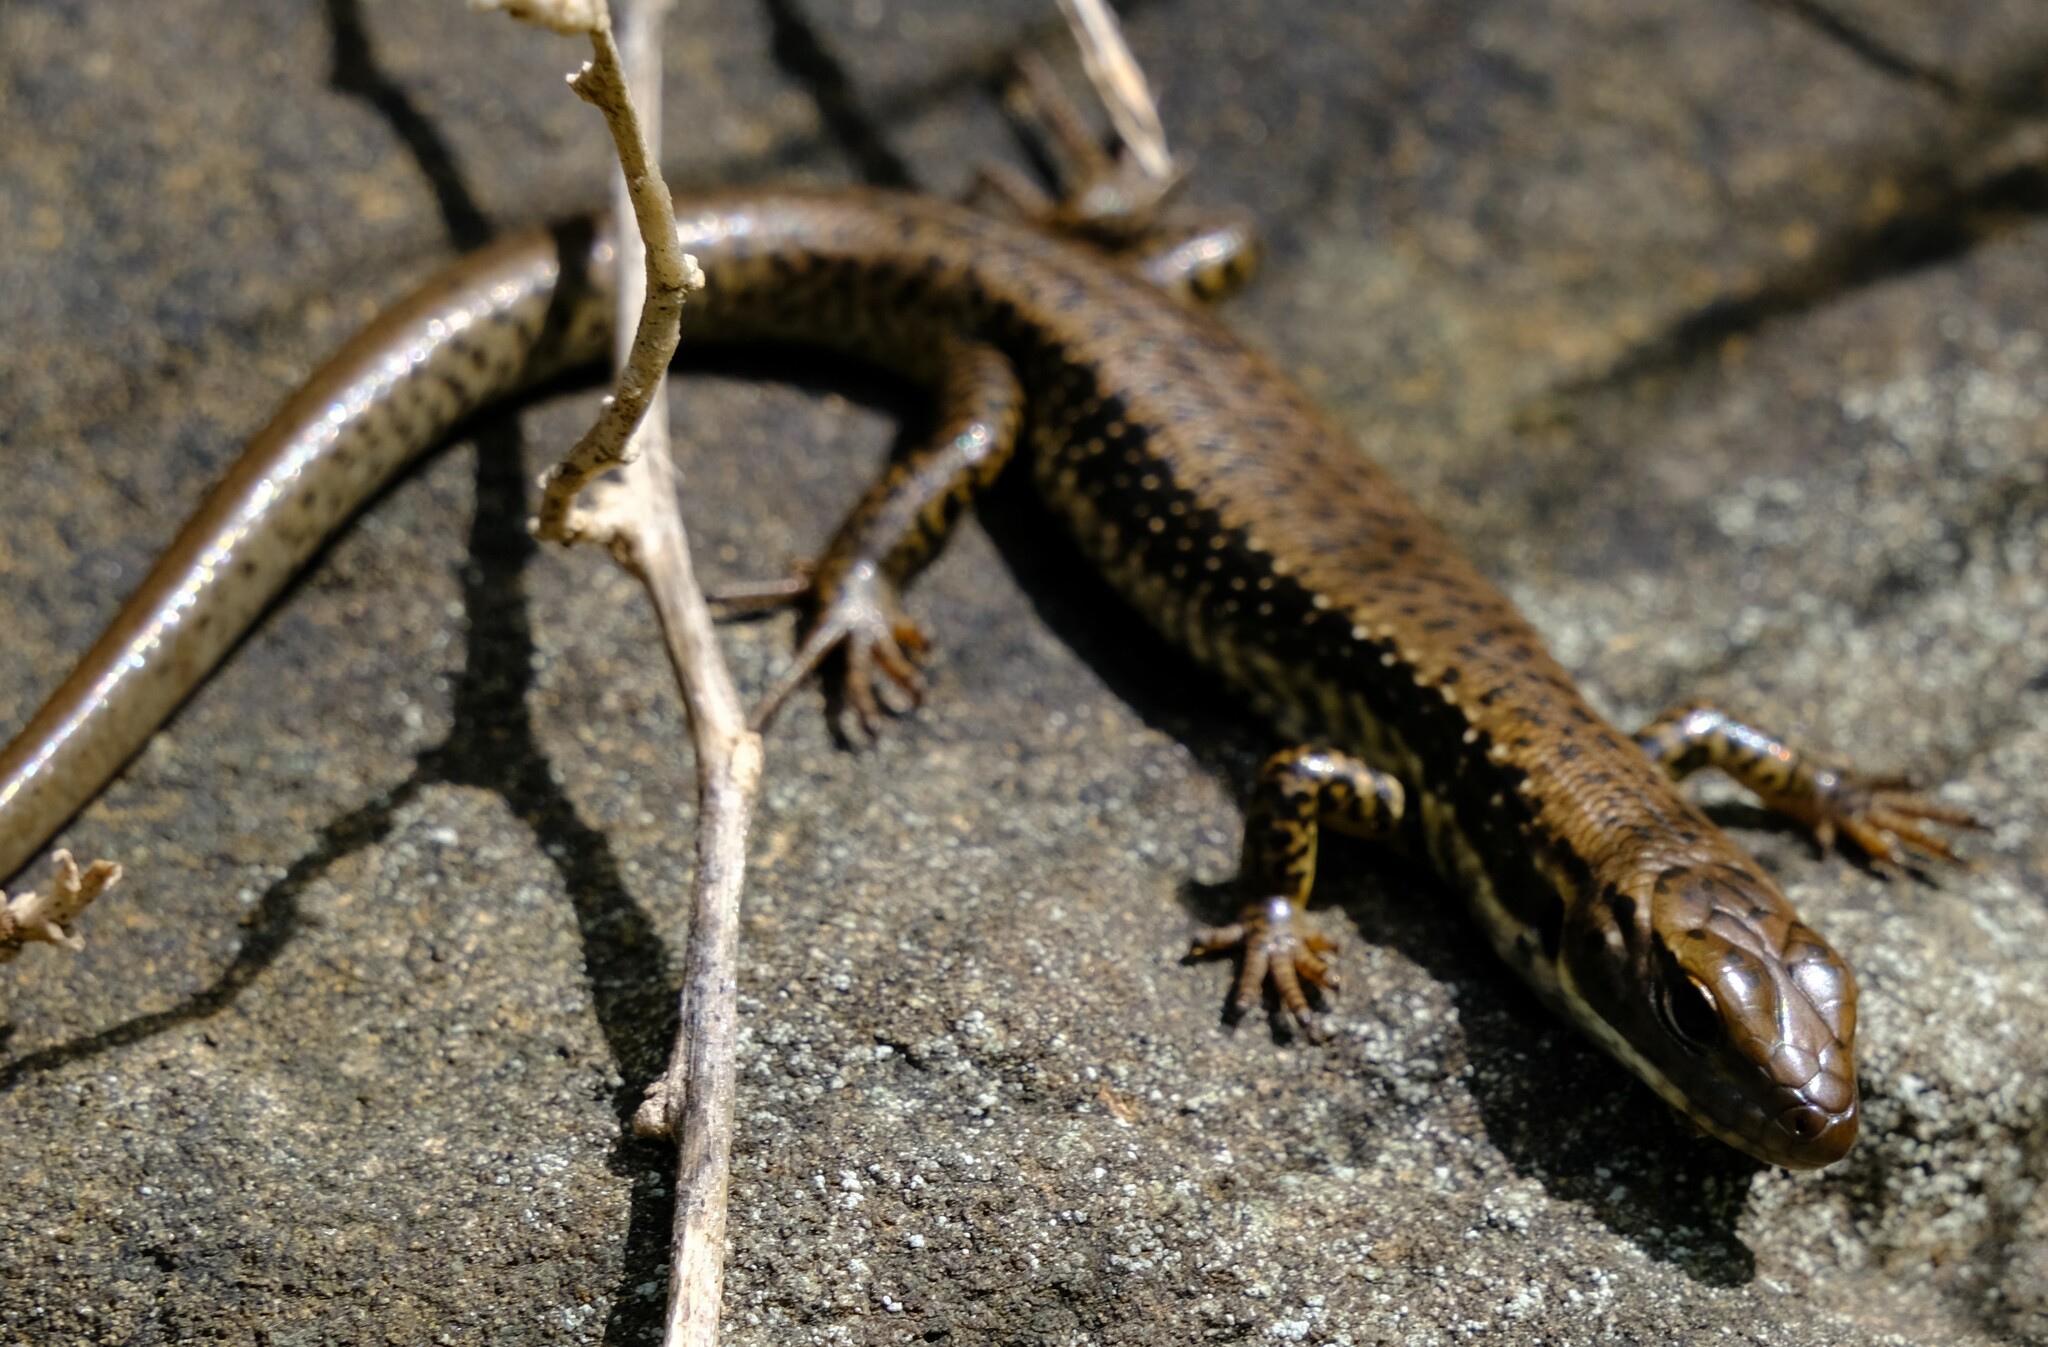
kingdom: Animalia
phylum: Chordata
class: Squamata
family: Scincidae
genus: Eulamprus
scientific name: Eulamprus tympanum
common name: Cool-temperate water-skink
